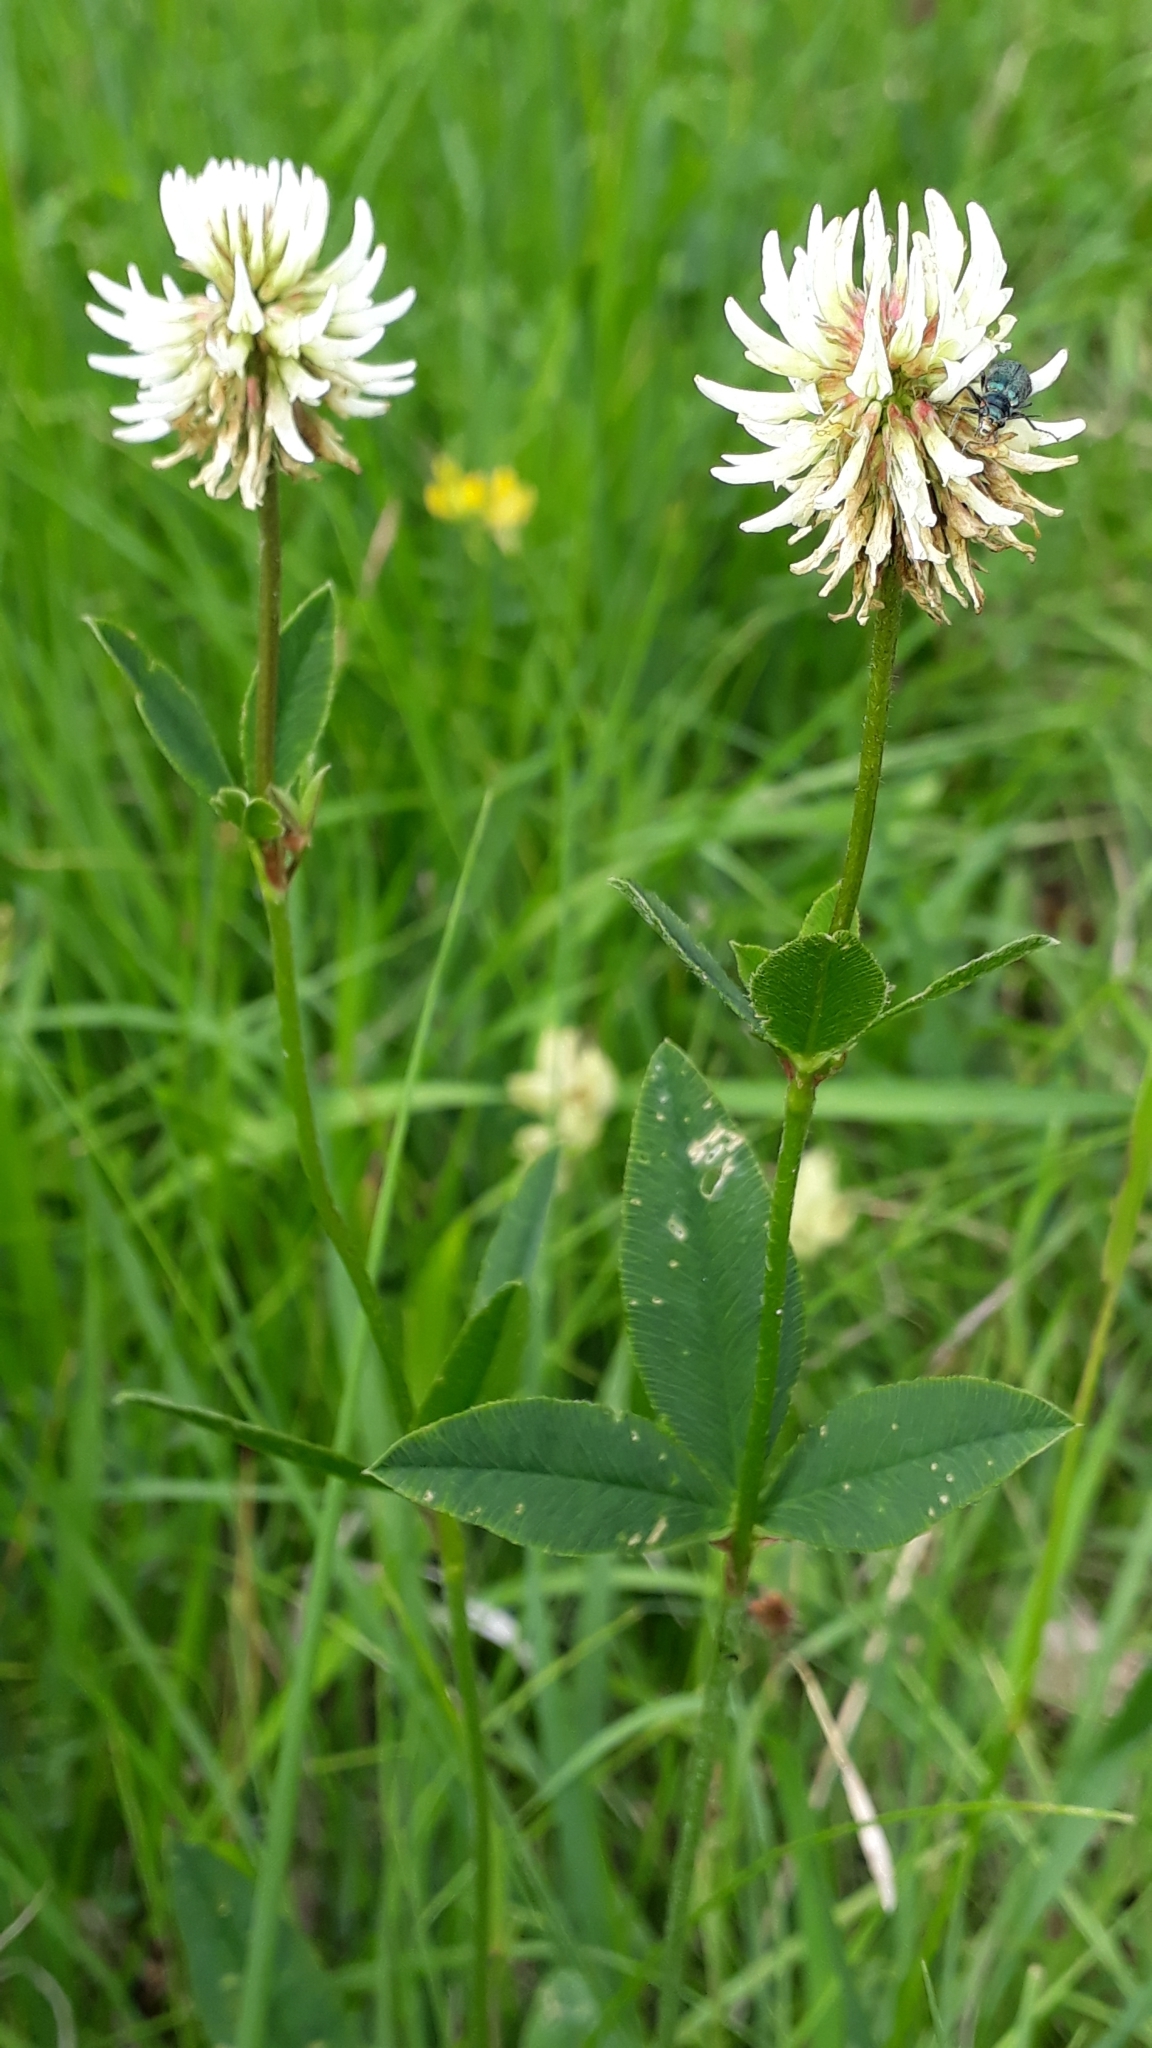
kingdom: Plantae
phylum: Tracheophyta
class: Magnoliopsida
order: Fabales
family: Fabaceae
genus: Trifolium
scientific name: Trifolium montanum
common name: Mountain clover
